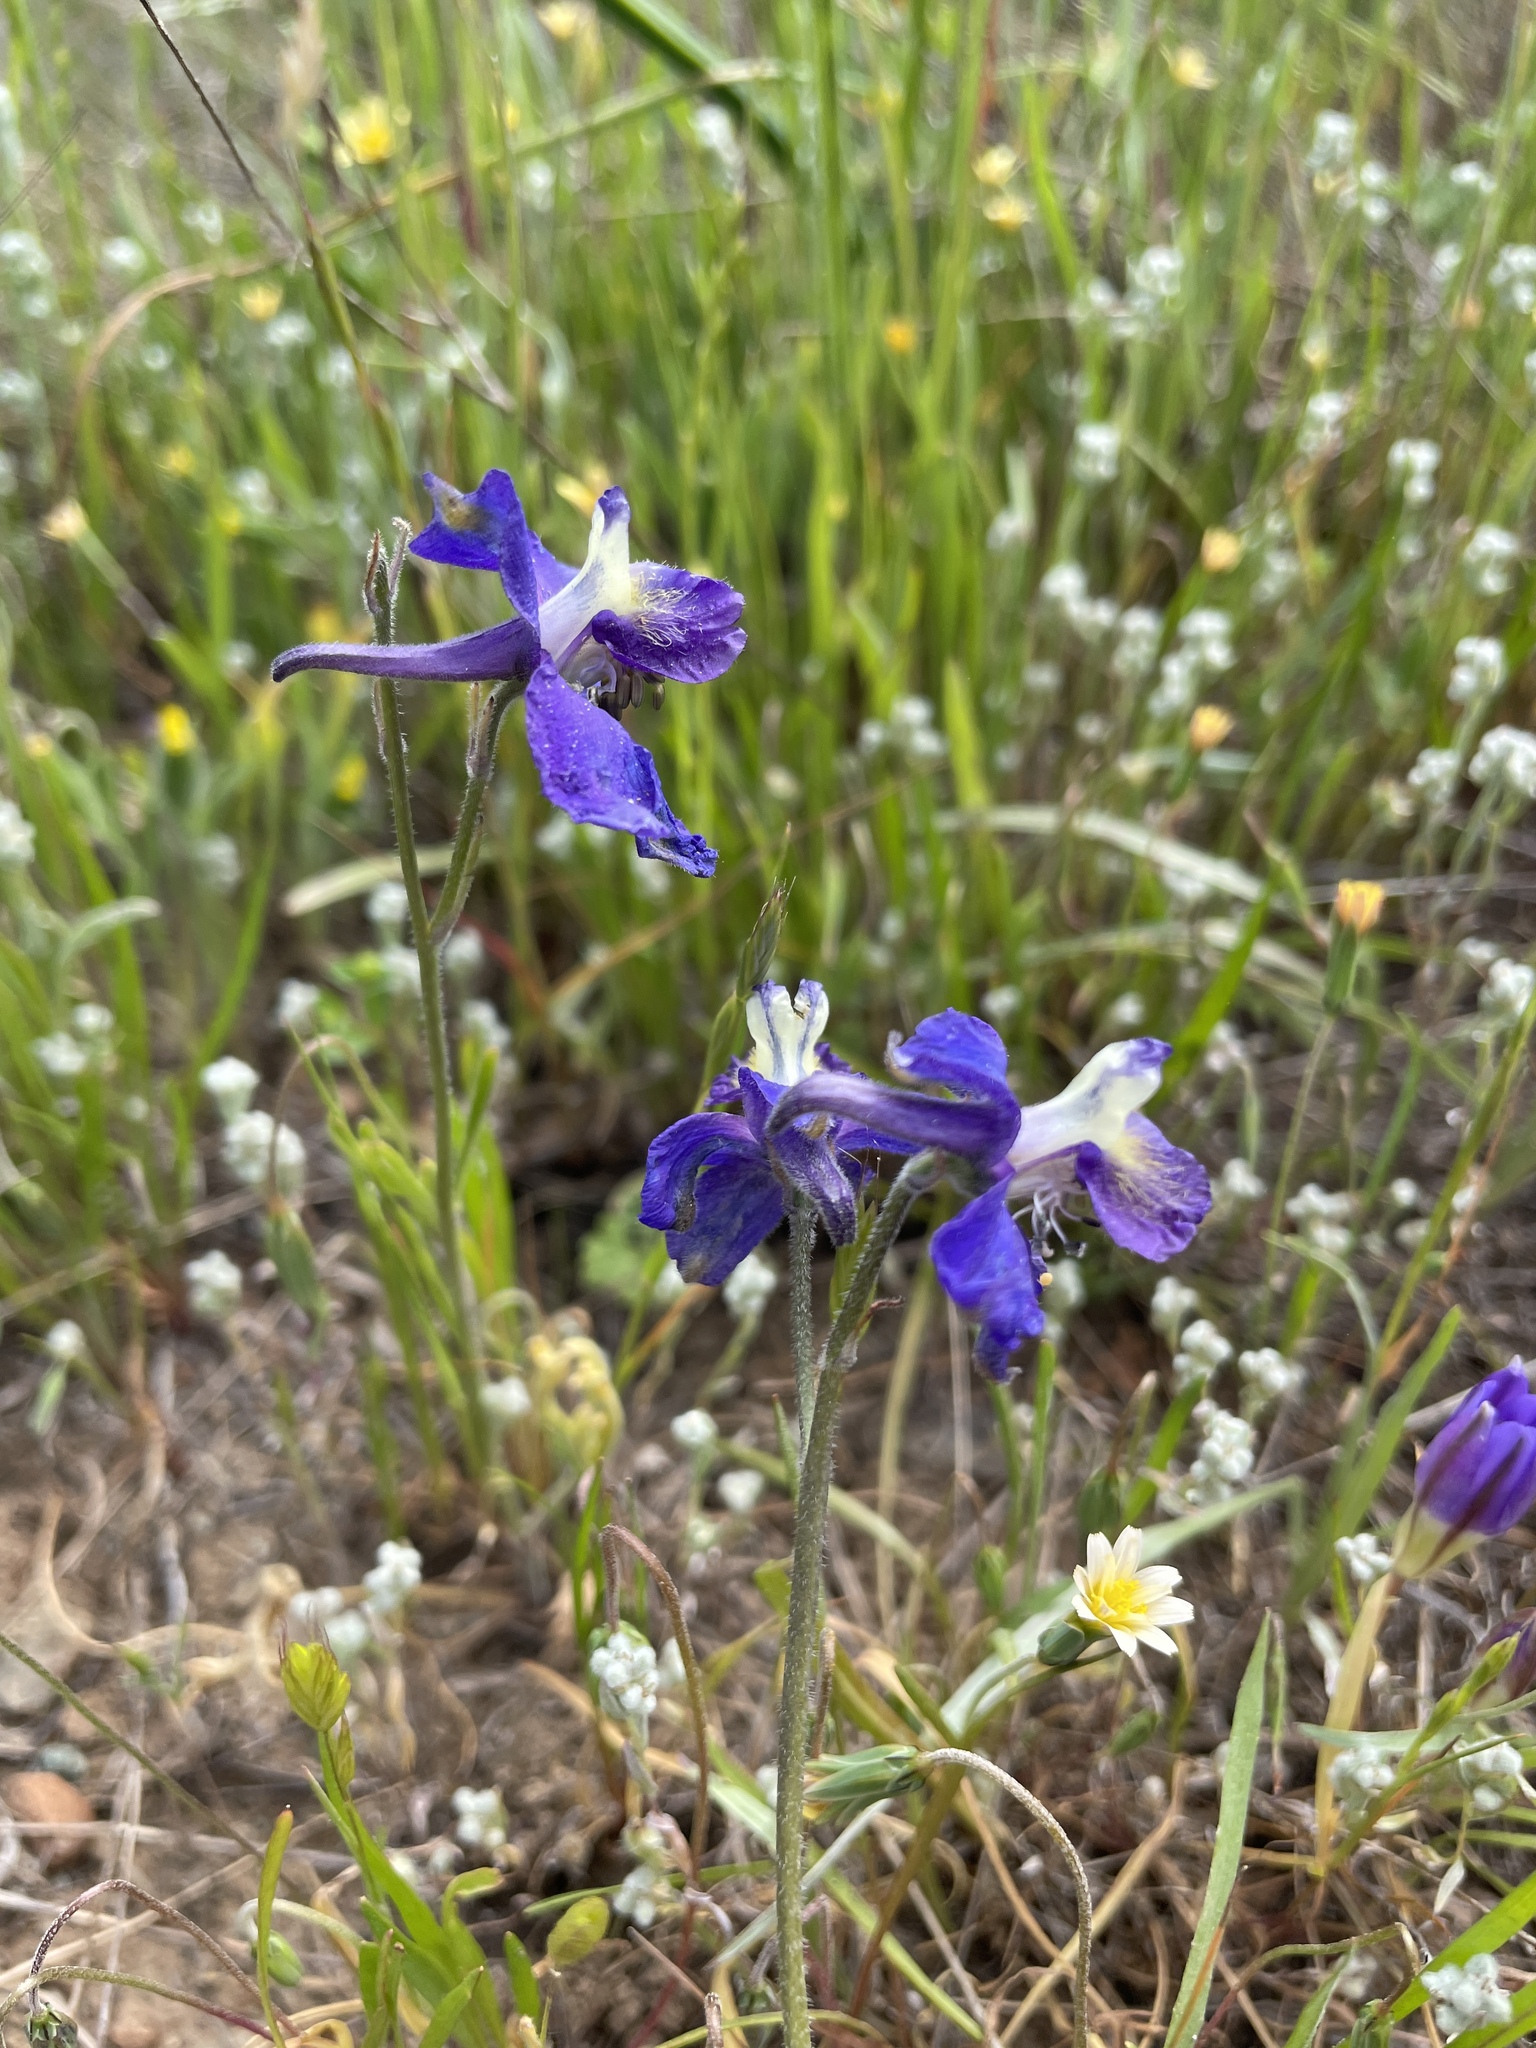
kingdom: Plantae
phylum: Tracheophyta
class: Magnoliopsida
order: Ranunculales
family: Ranunculaceae
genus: Delphinium
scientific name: Delphinium variegatum
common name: Royal larkspur
